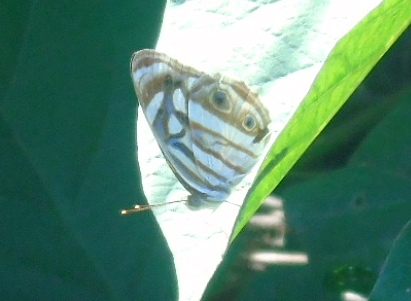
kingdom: Animalia
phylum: Arthropoda
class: Insecta
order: Lepidoptera
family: Nymphalidae
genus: Dynamine
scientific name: Dynamine mylitta
